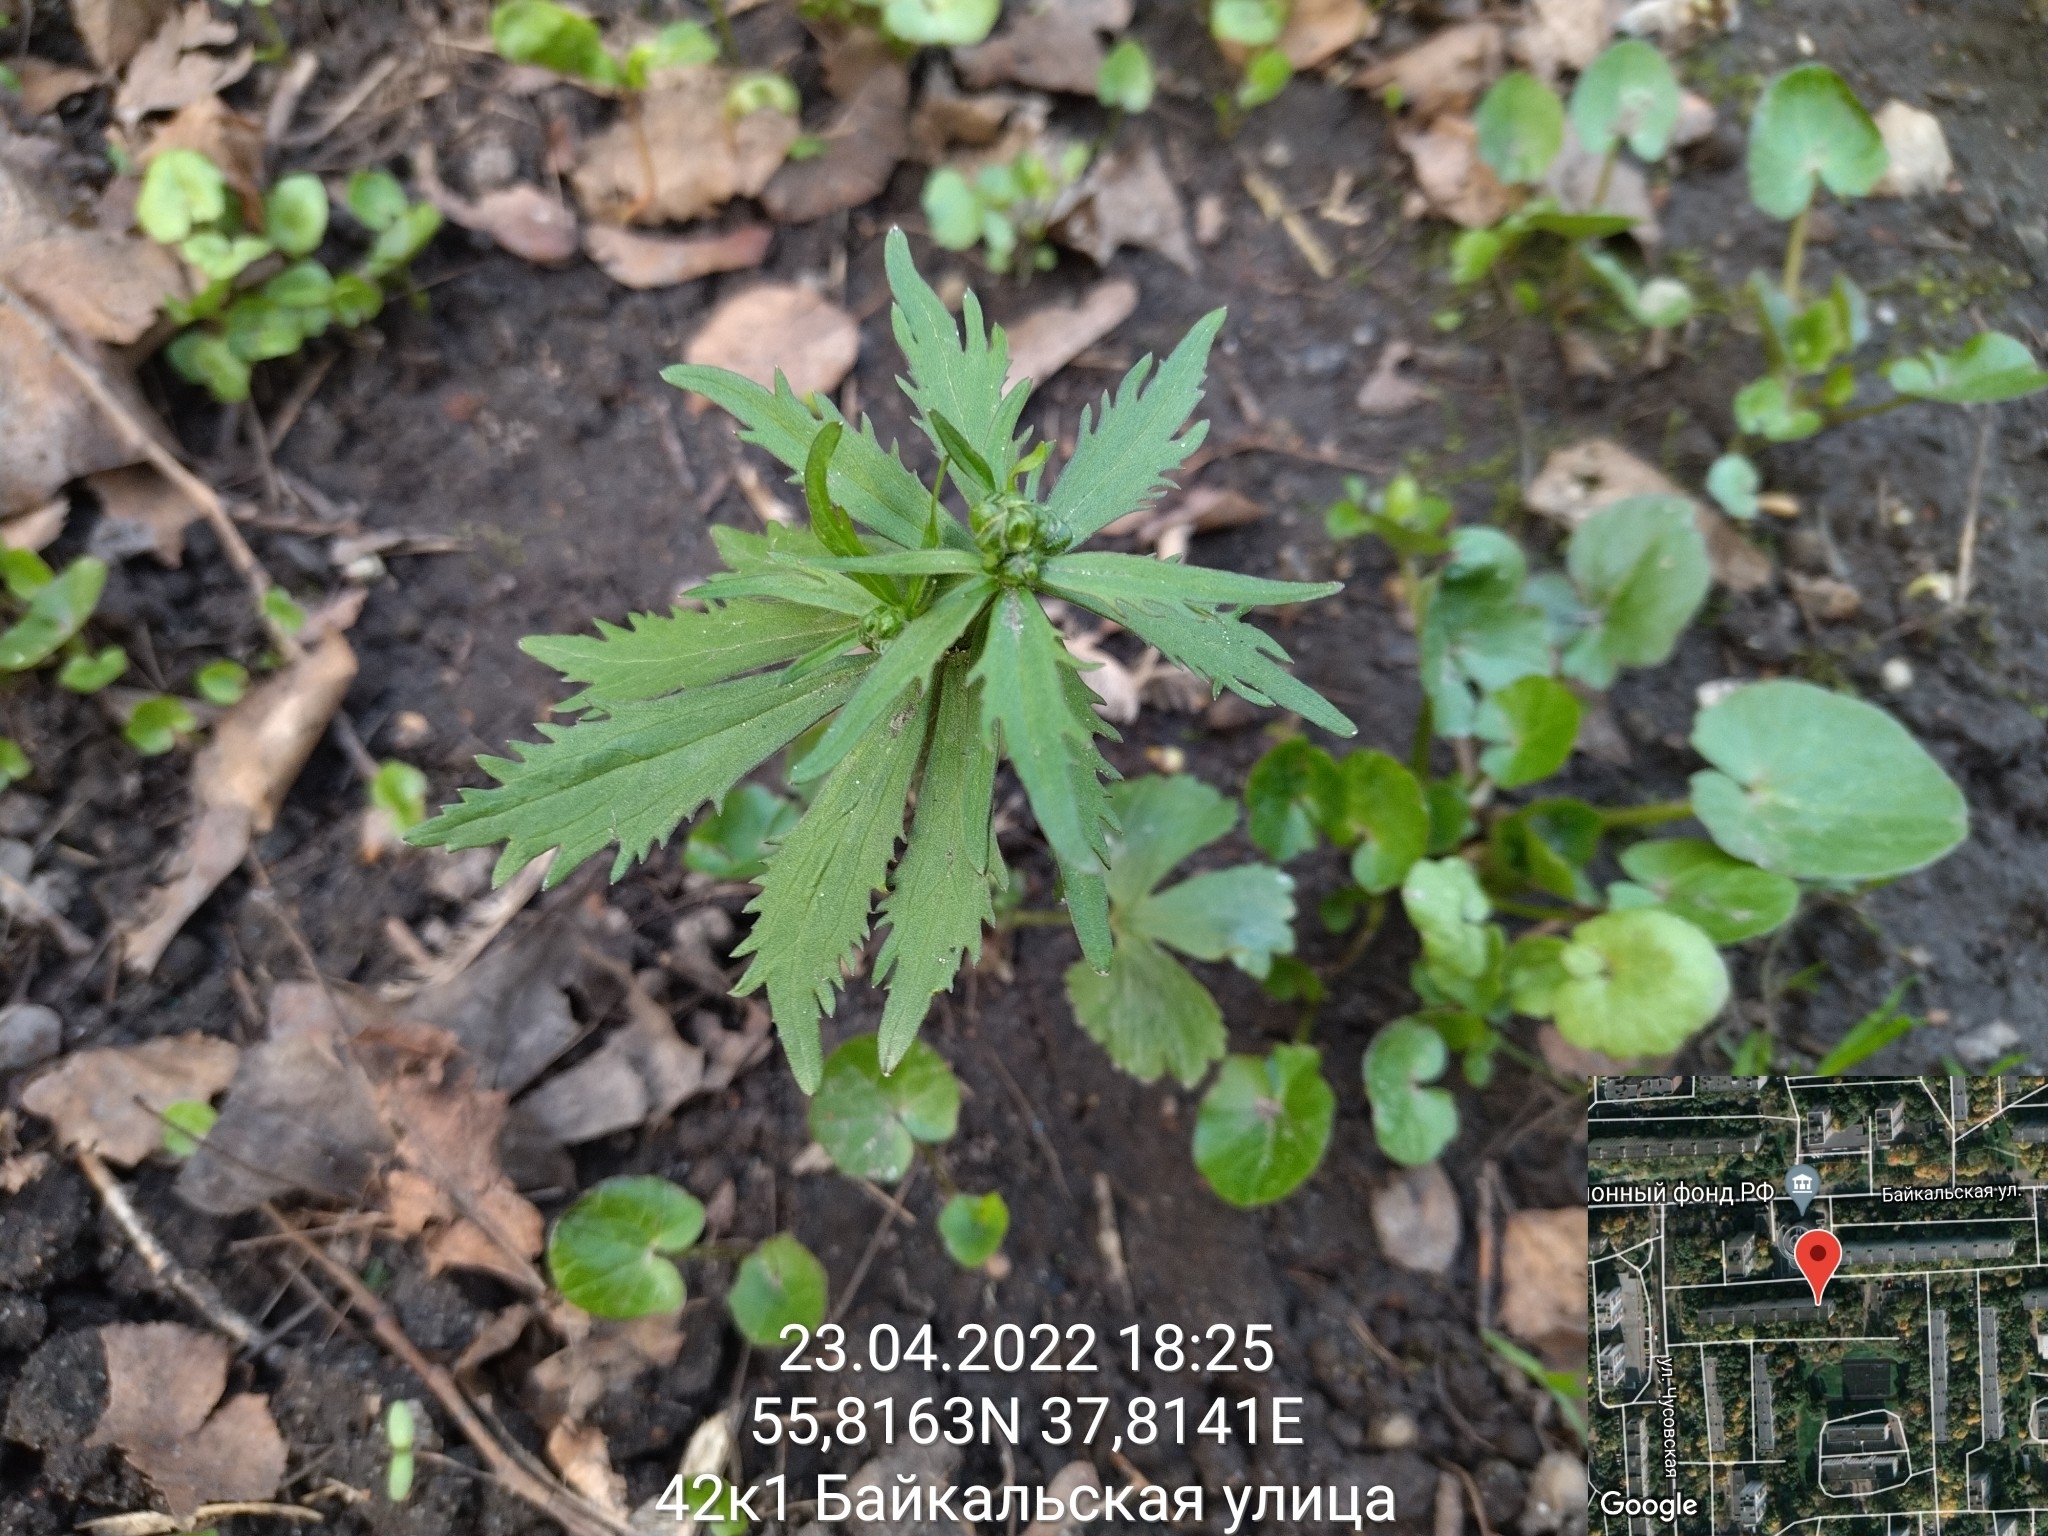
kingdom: Plantae
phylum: Tracheophyta
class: Magnoliopsida
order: Ranunculales
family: Ranunculaceae
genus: Ranunculus
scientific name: Ranunculus cassubicus
